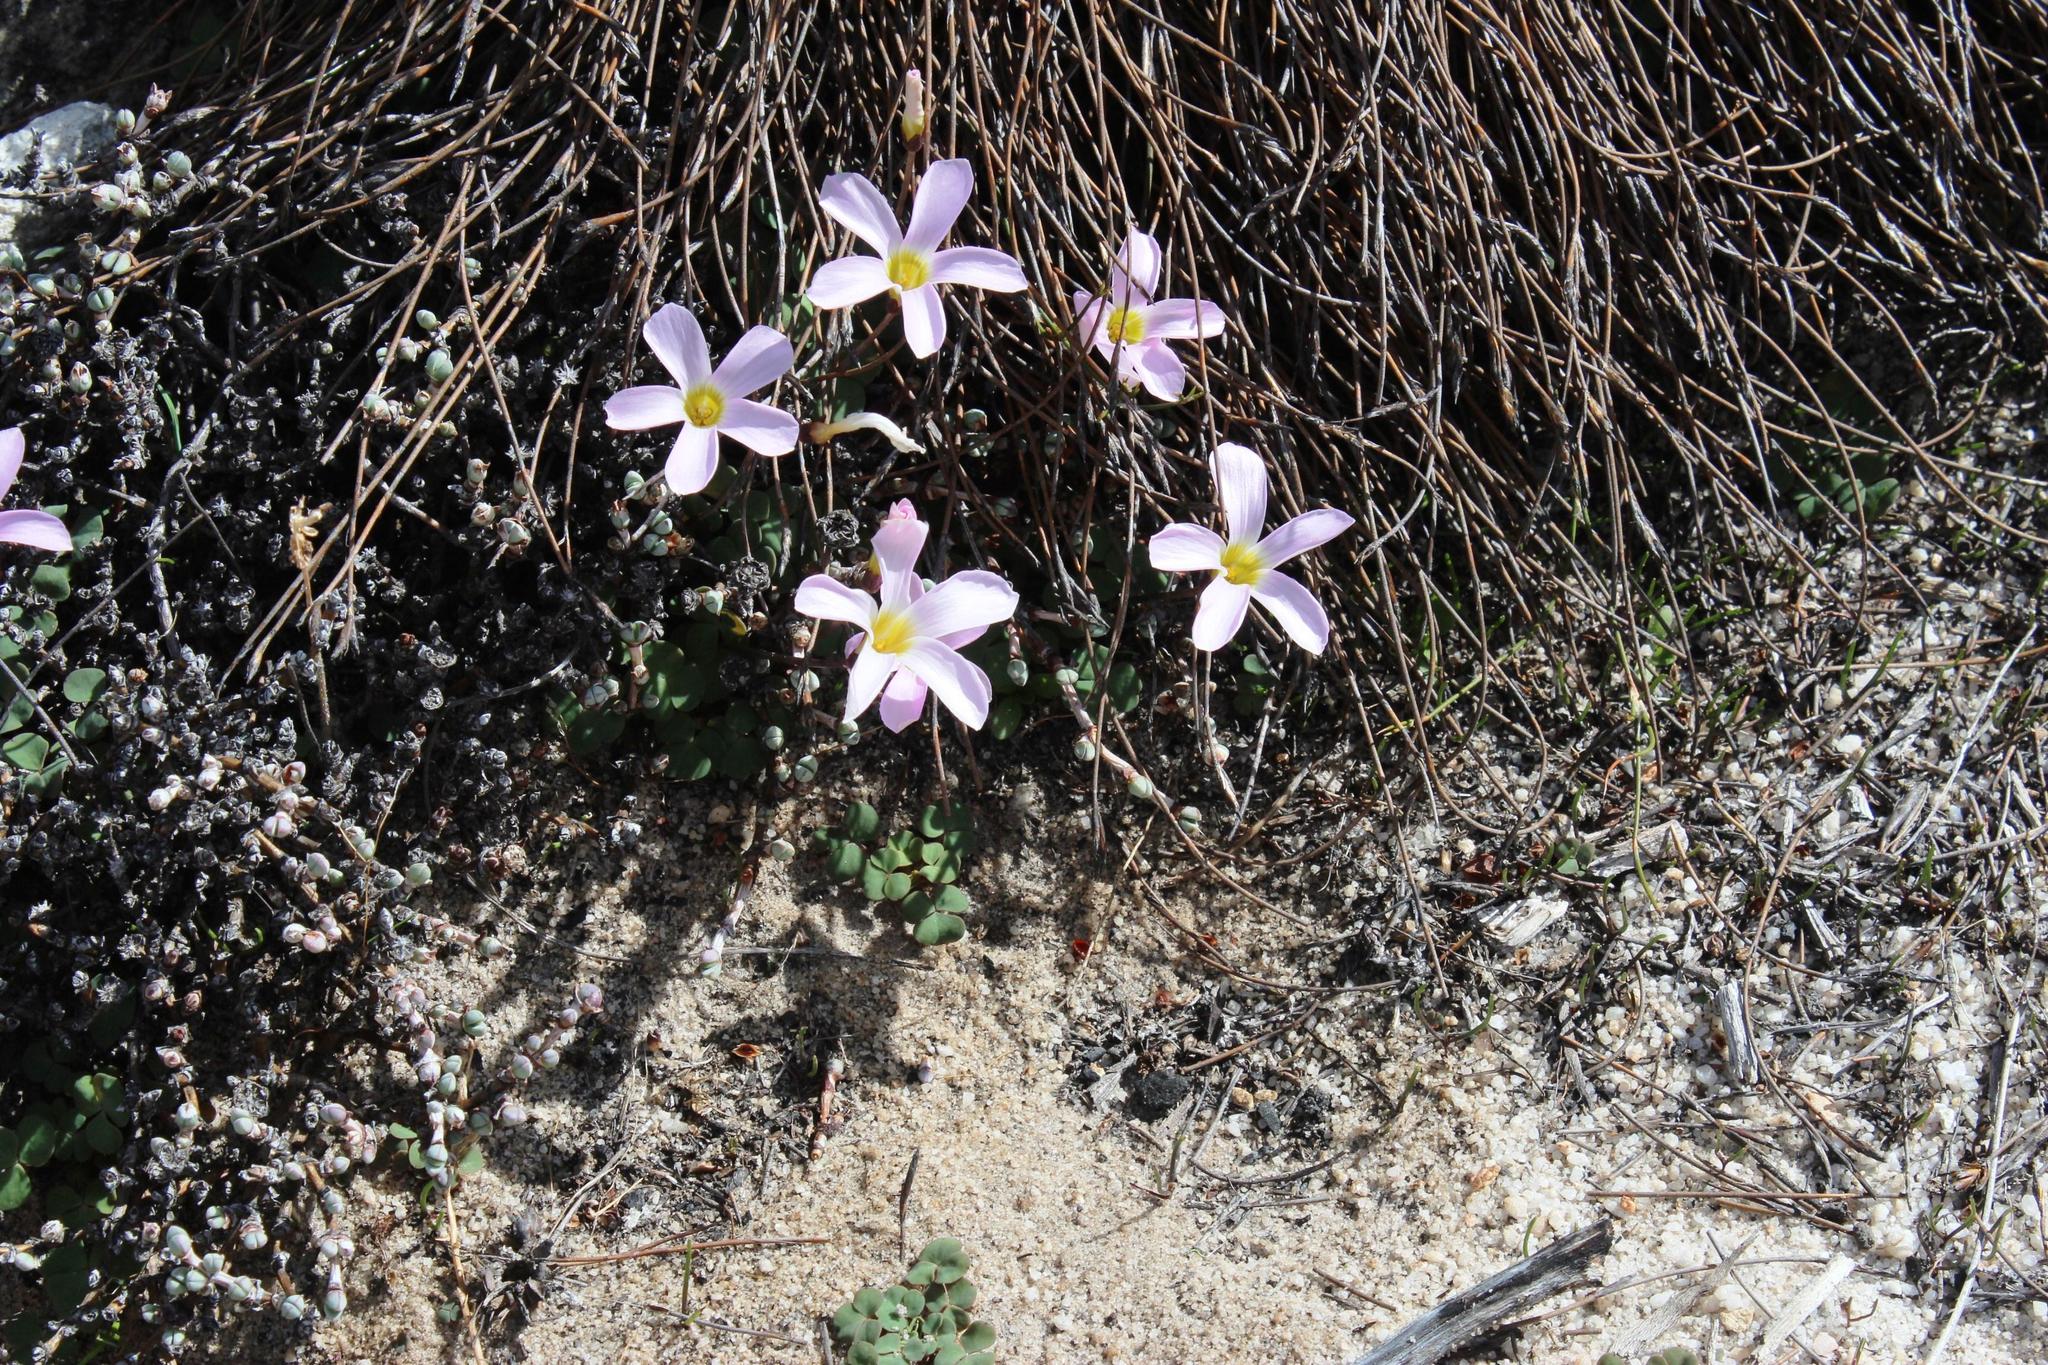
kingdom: Plantae
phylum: Tracheophyta
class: Magnoliopsida
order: Oxalidales
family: Oxalidaceae
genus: Oxalis
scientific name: Oxalis depressa
